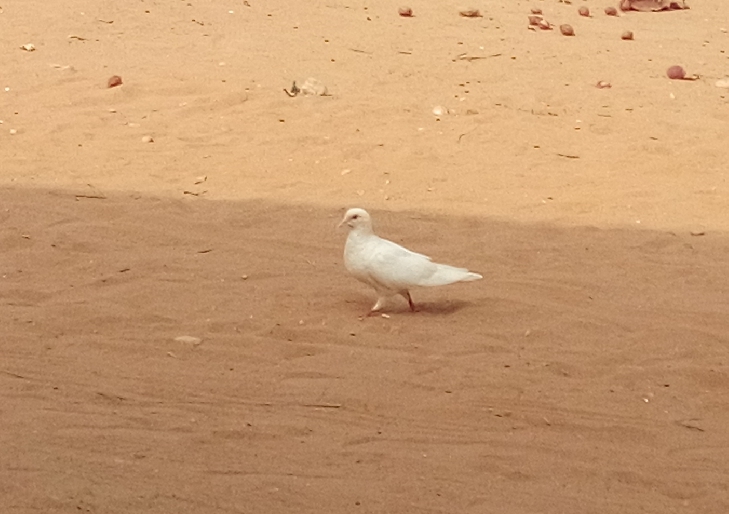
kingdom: Animalia
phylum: Chordata
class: Aves
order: Columbiformes
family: Columbidae
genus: Columba
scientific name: Columba livia
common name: Rock pigeon
